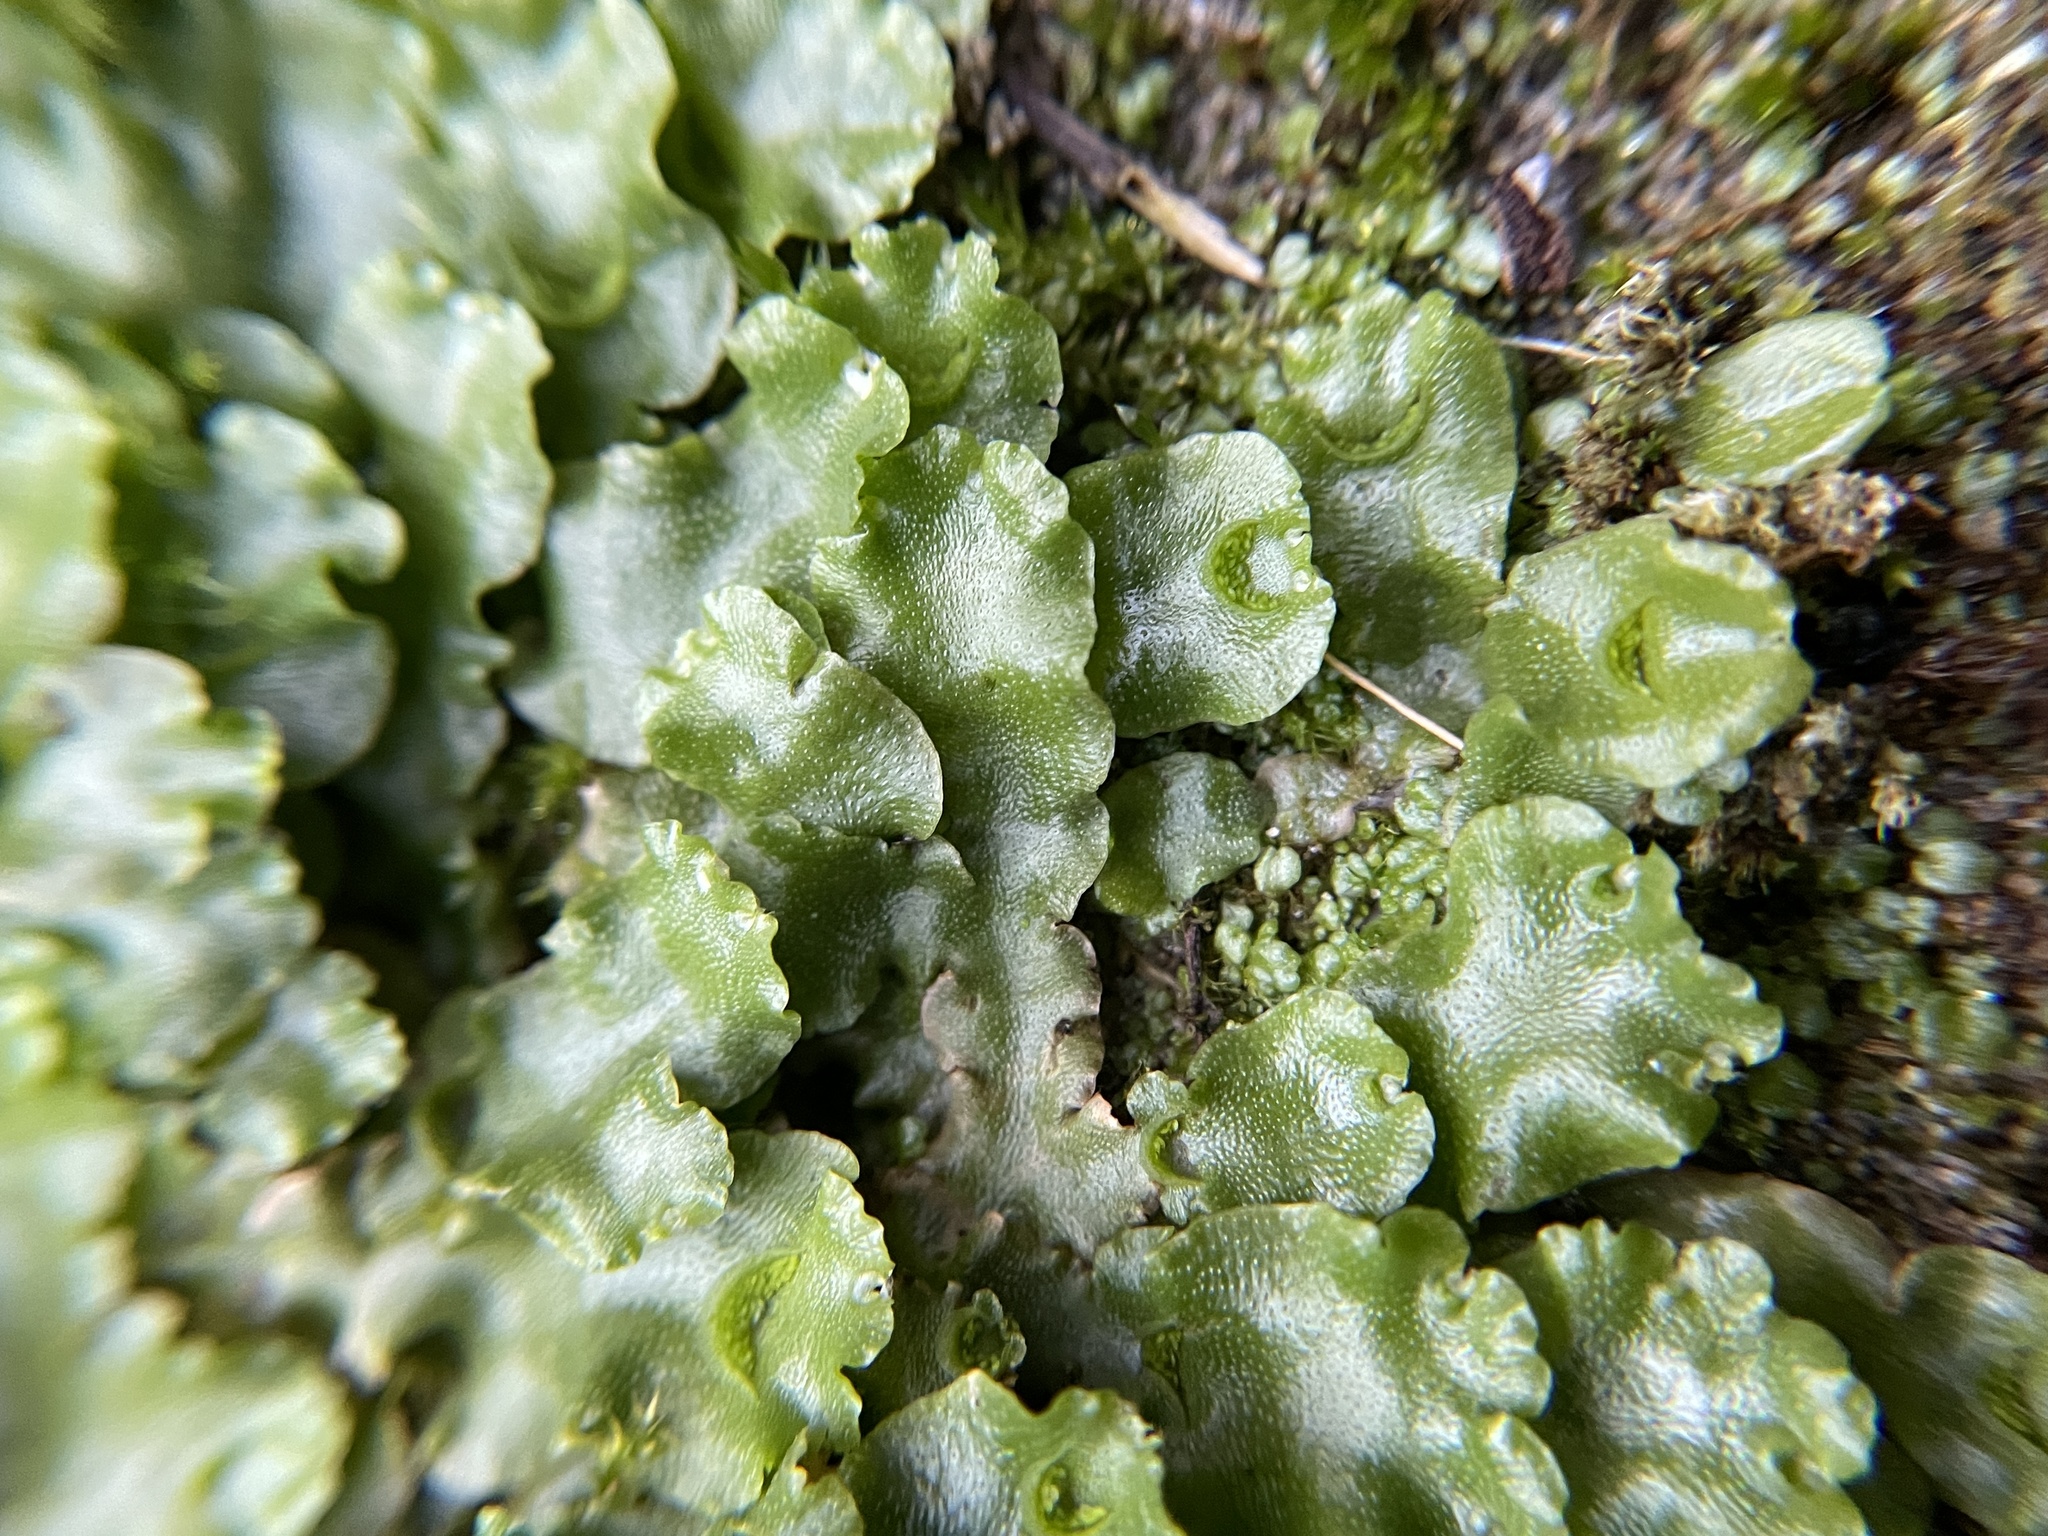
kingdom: Plantae
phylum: Marchantiophyta
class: Marchantiopsida
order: Lunulariales
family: Lunulariaceae
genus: Lunularia
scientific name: Lunularia cruciata
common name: Crescent-cup liverwort
